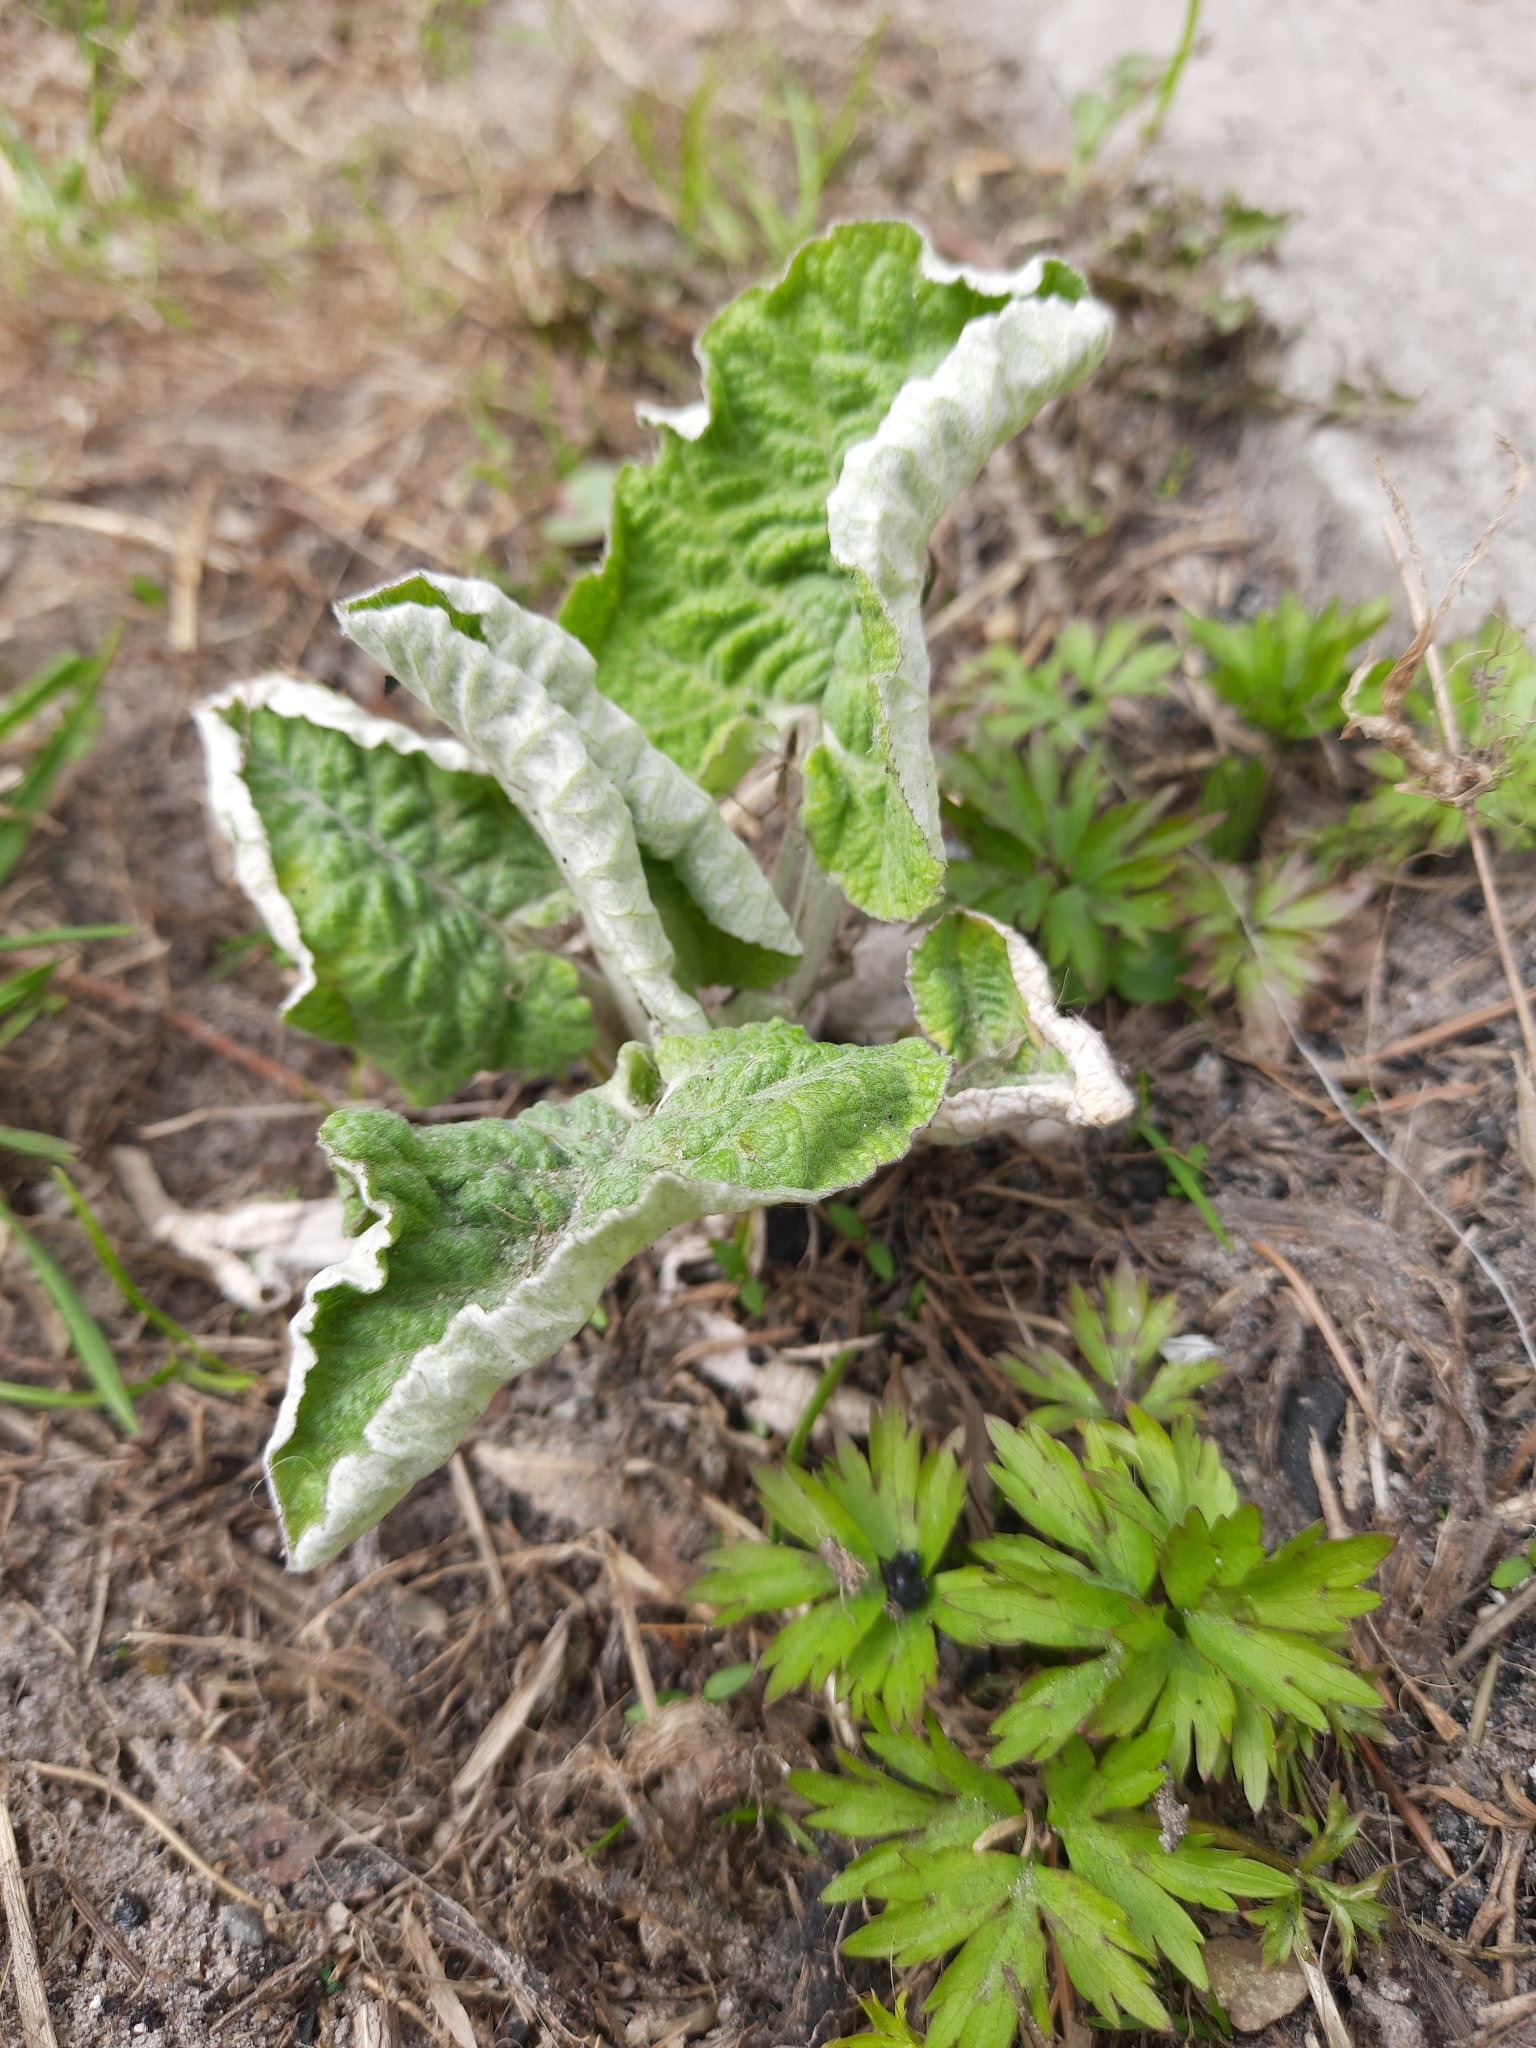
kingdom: Plantae
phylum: Tracheophyta
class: Magnoliopsida
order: Asterales
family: Asteraceae
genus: Arctium
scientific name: Arctium tomentosum
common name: Woolly burdock
